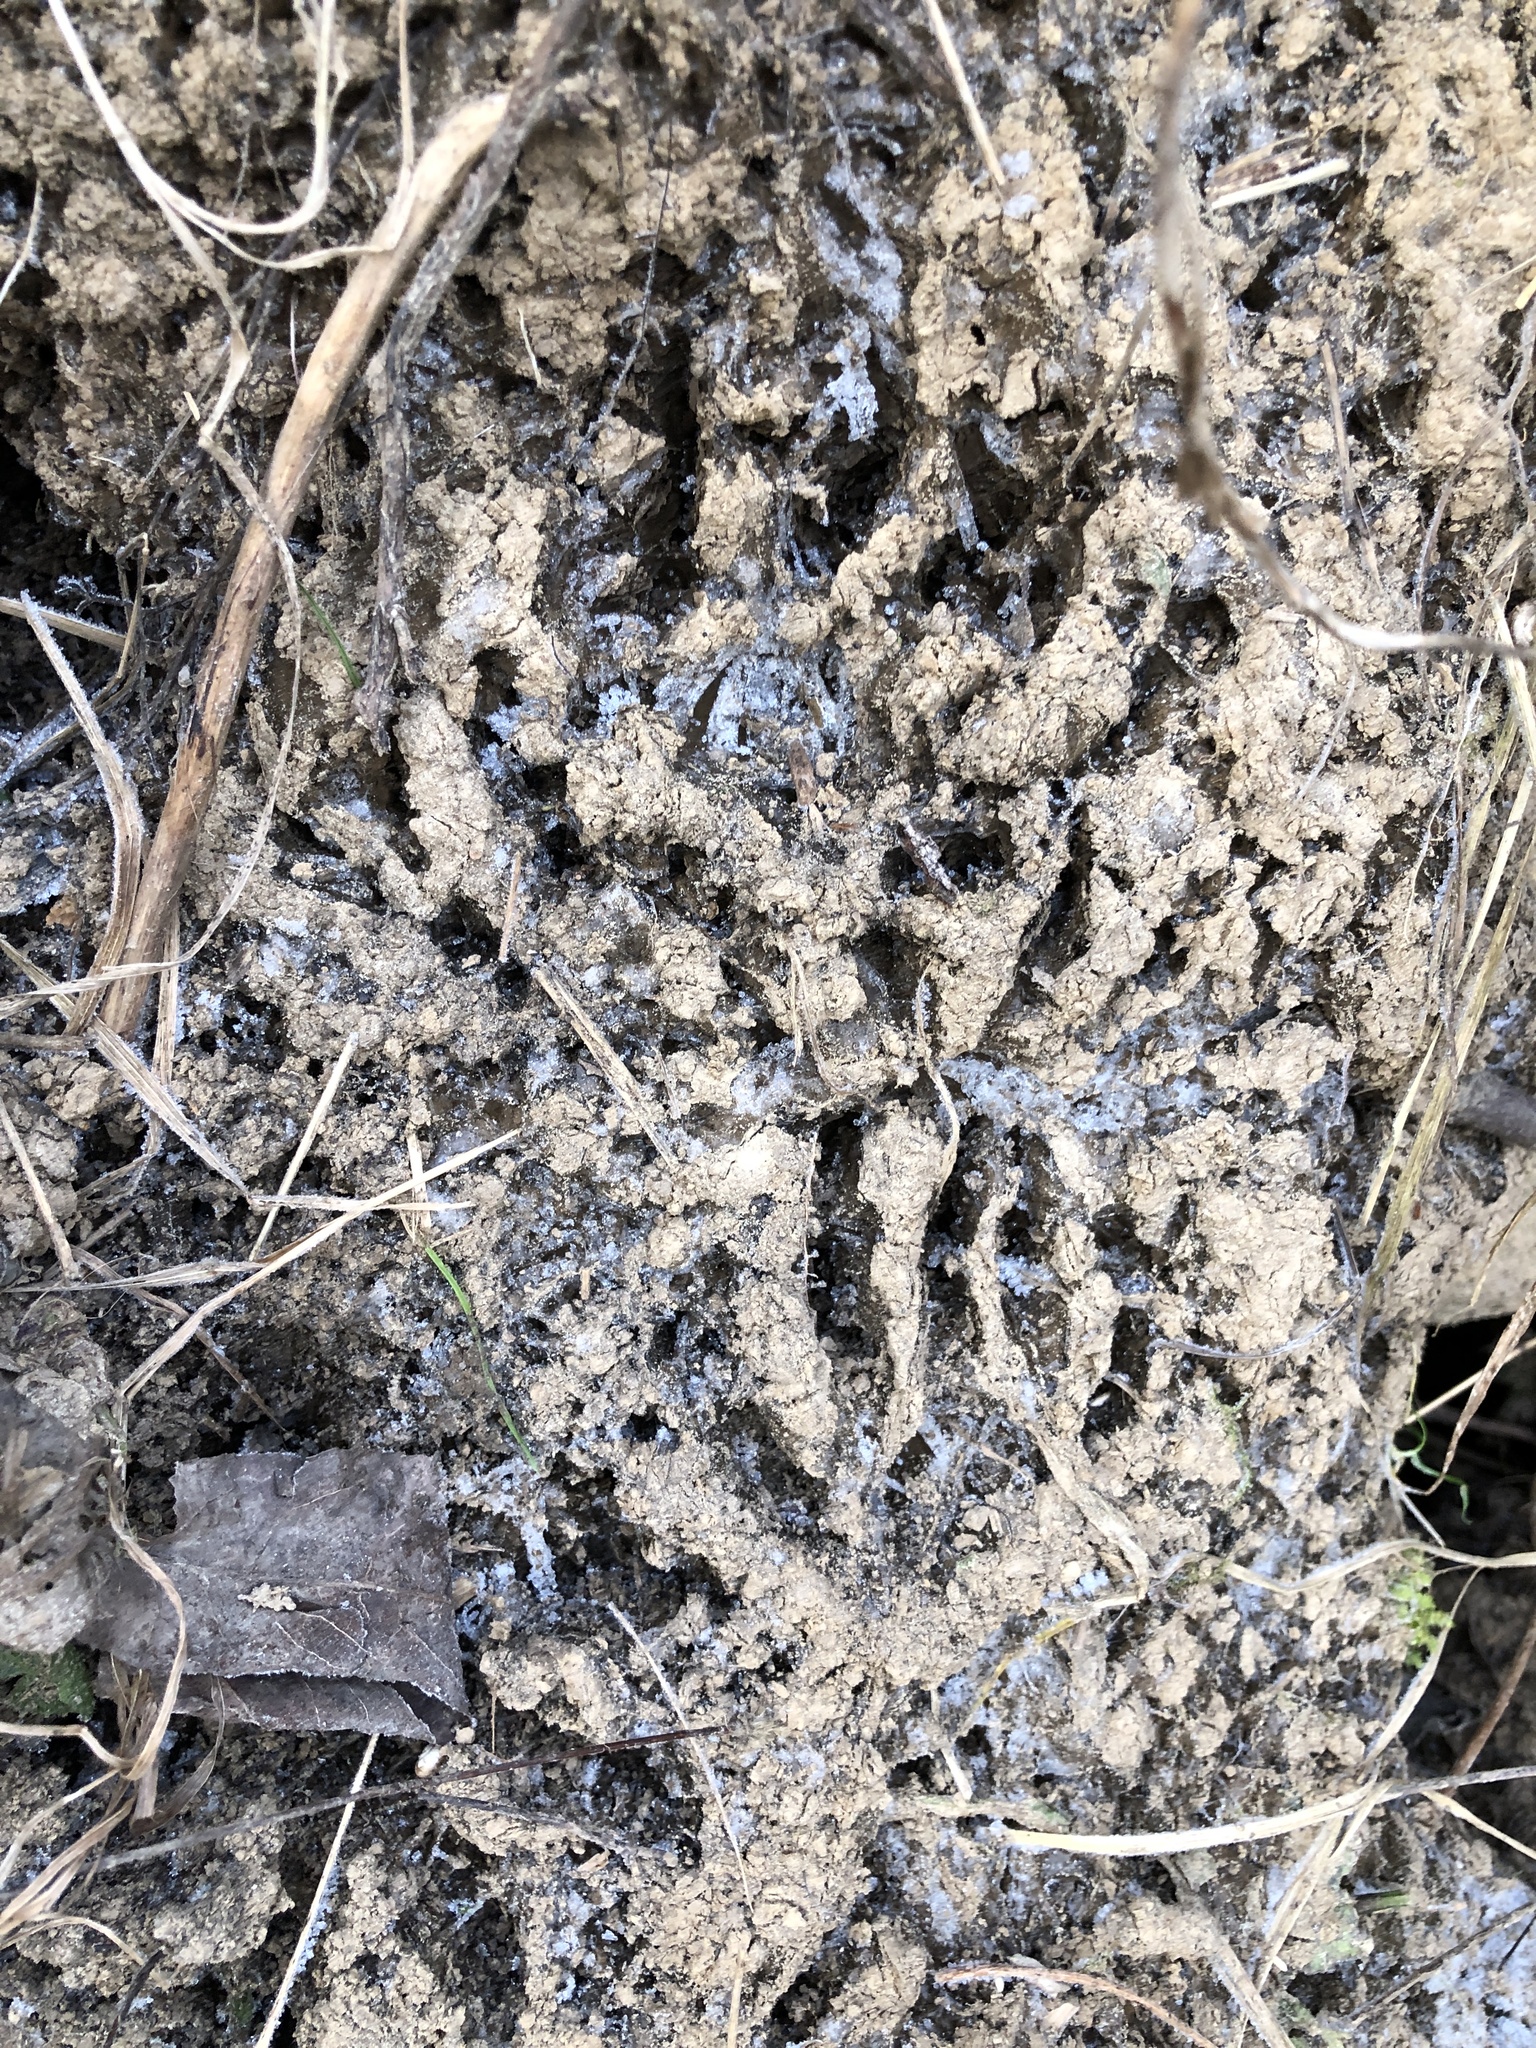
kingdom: Animalia
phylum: Chordata
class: Mammalia
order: Carnivora
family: Procyonidae
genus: Procyon
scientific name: Procyon lotor
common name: Raccoon
